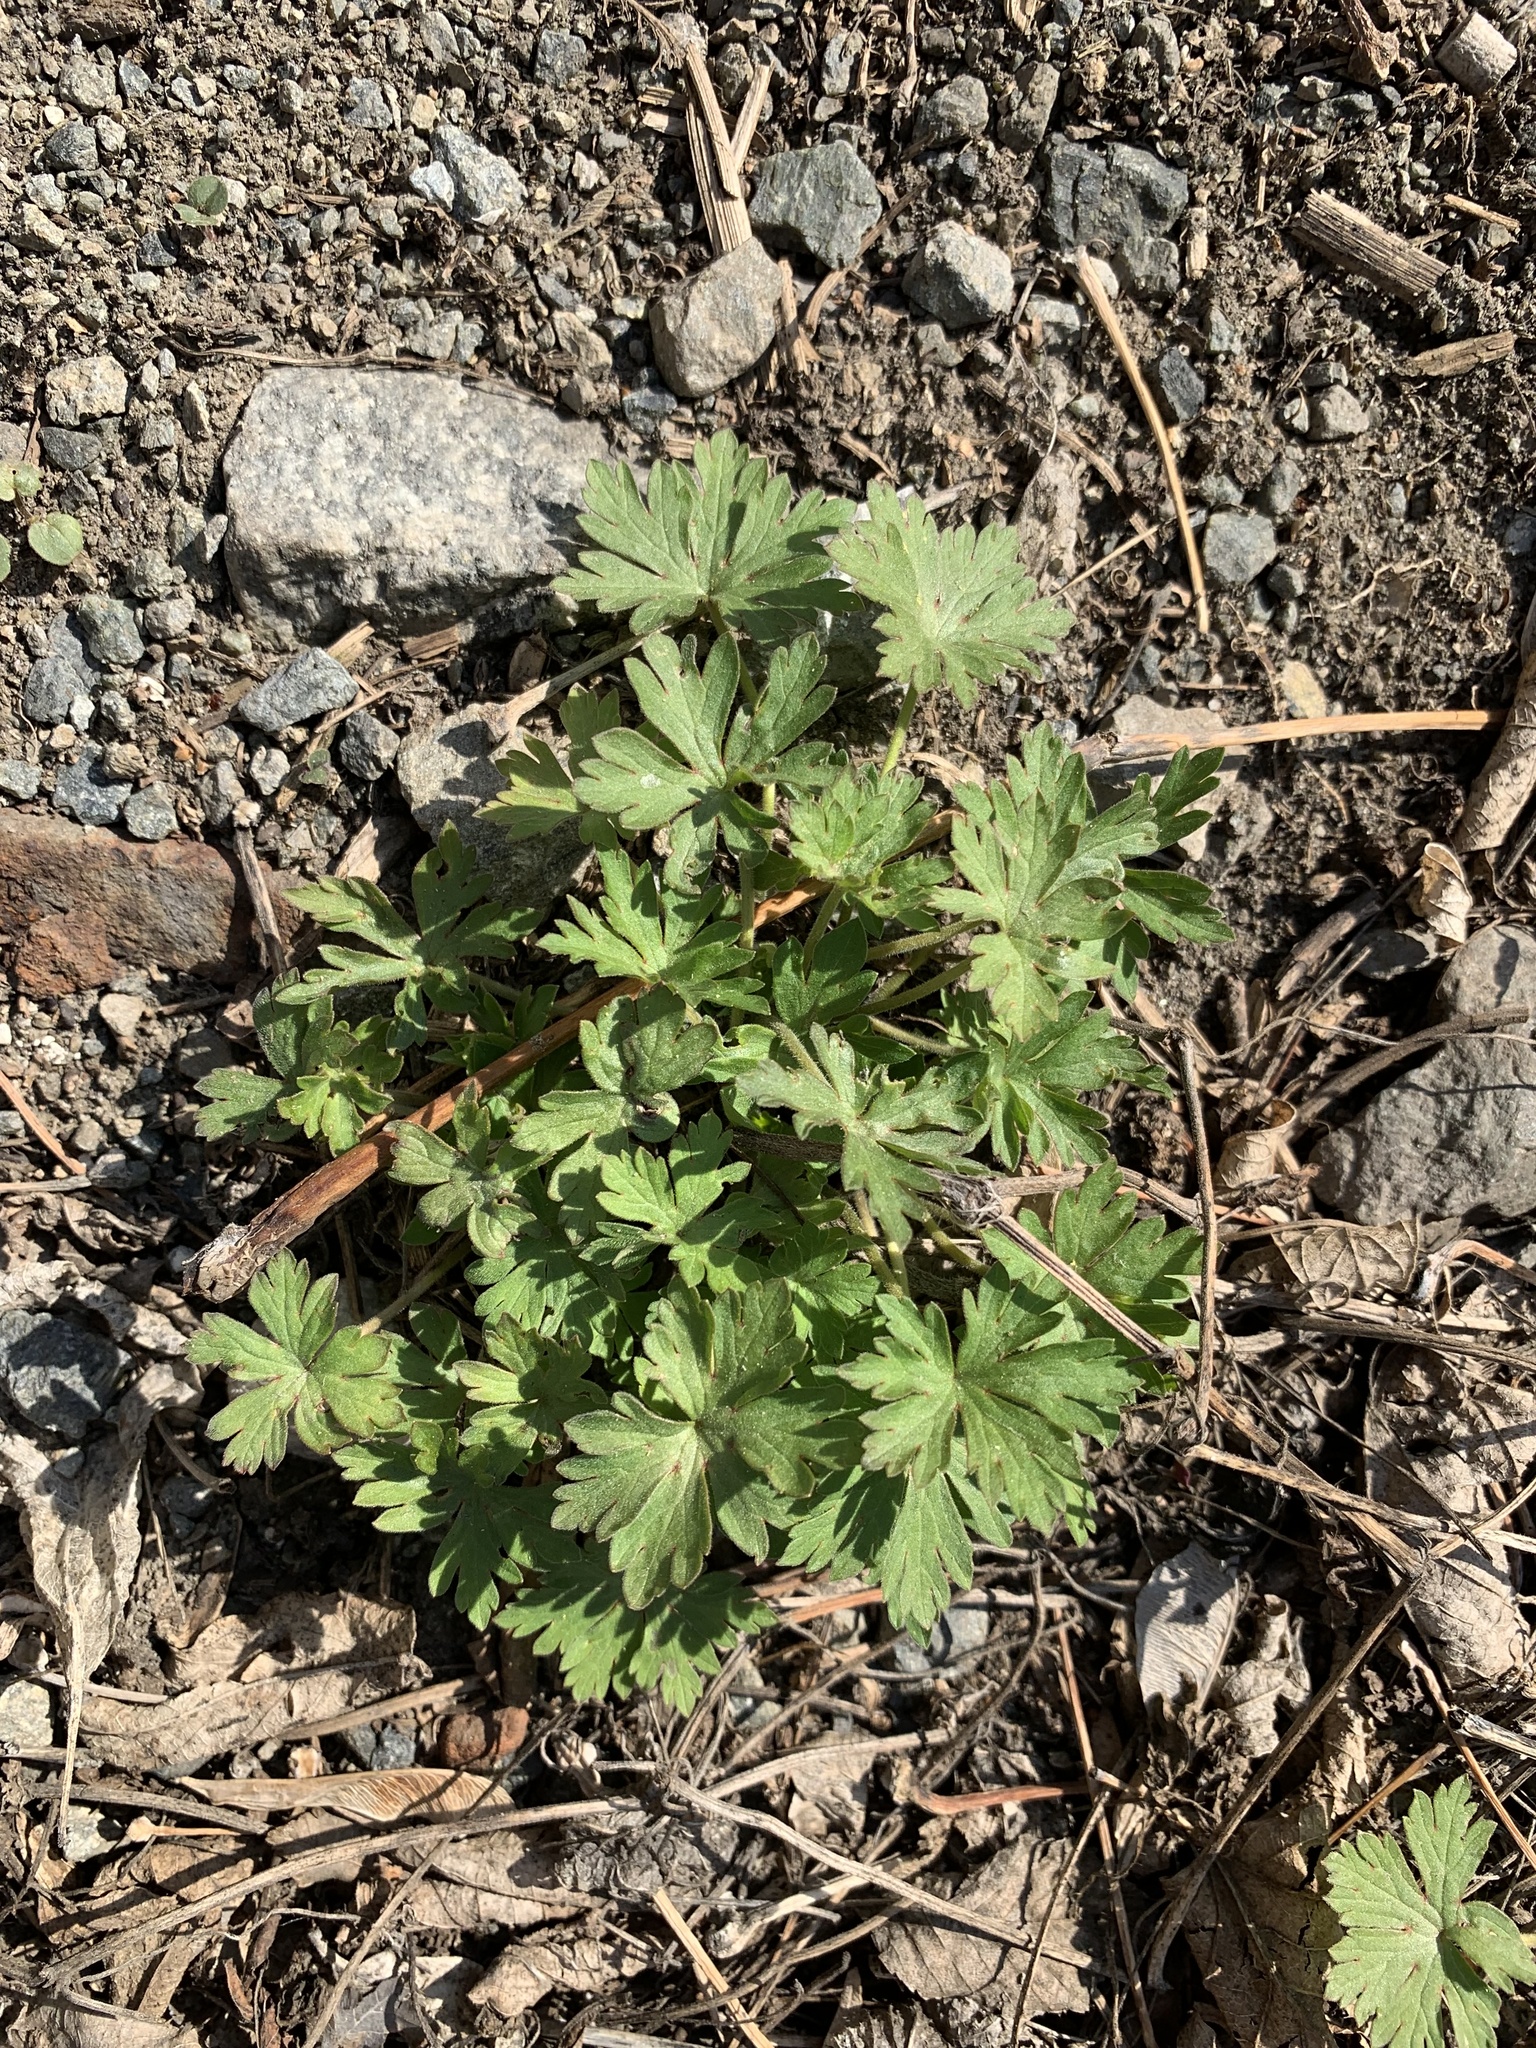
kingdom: Plantae
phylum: Tracheophyta
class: Magnoliopsida
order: Geraniales
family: Geraniaceae
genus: Geranium
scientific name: Geranium sibiricum
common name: Siberian crane's-bill
